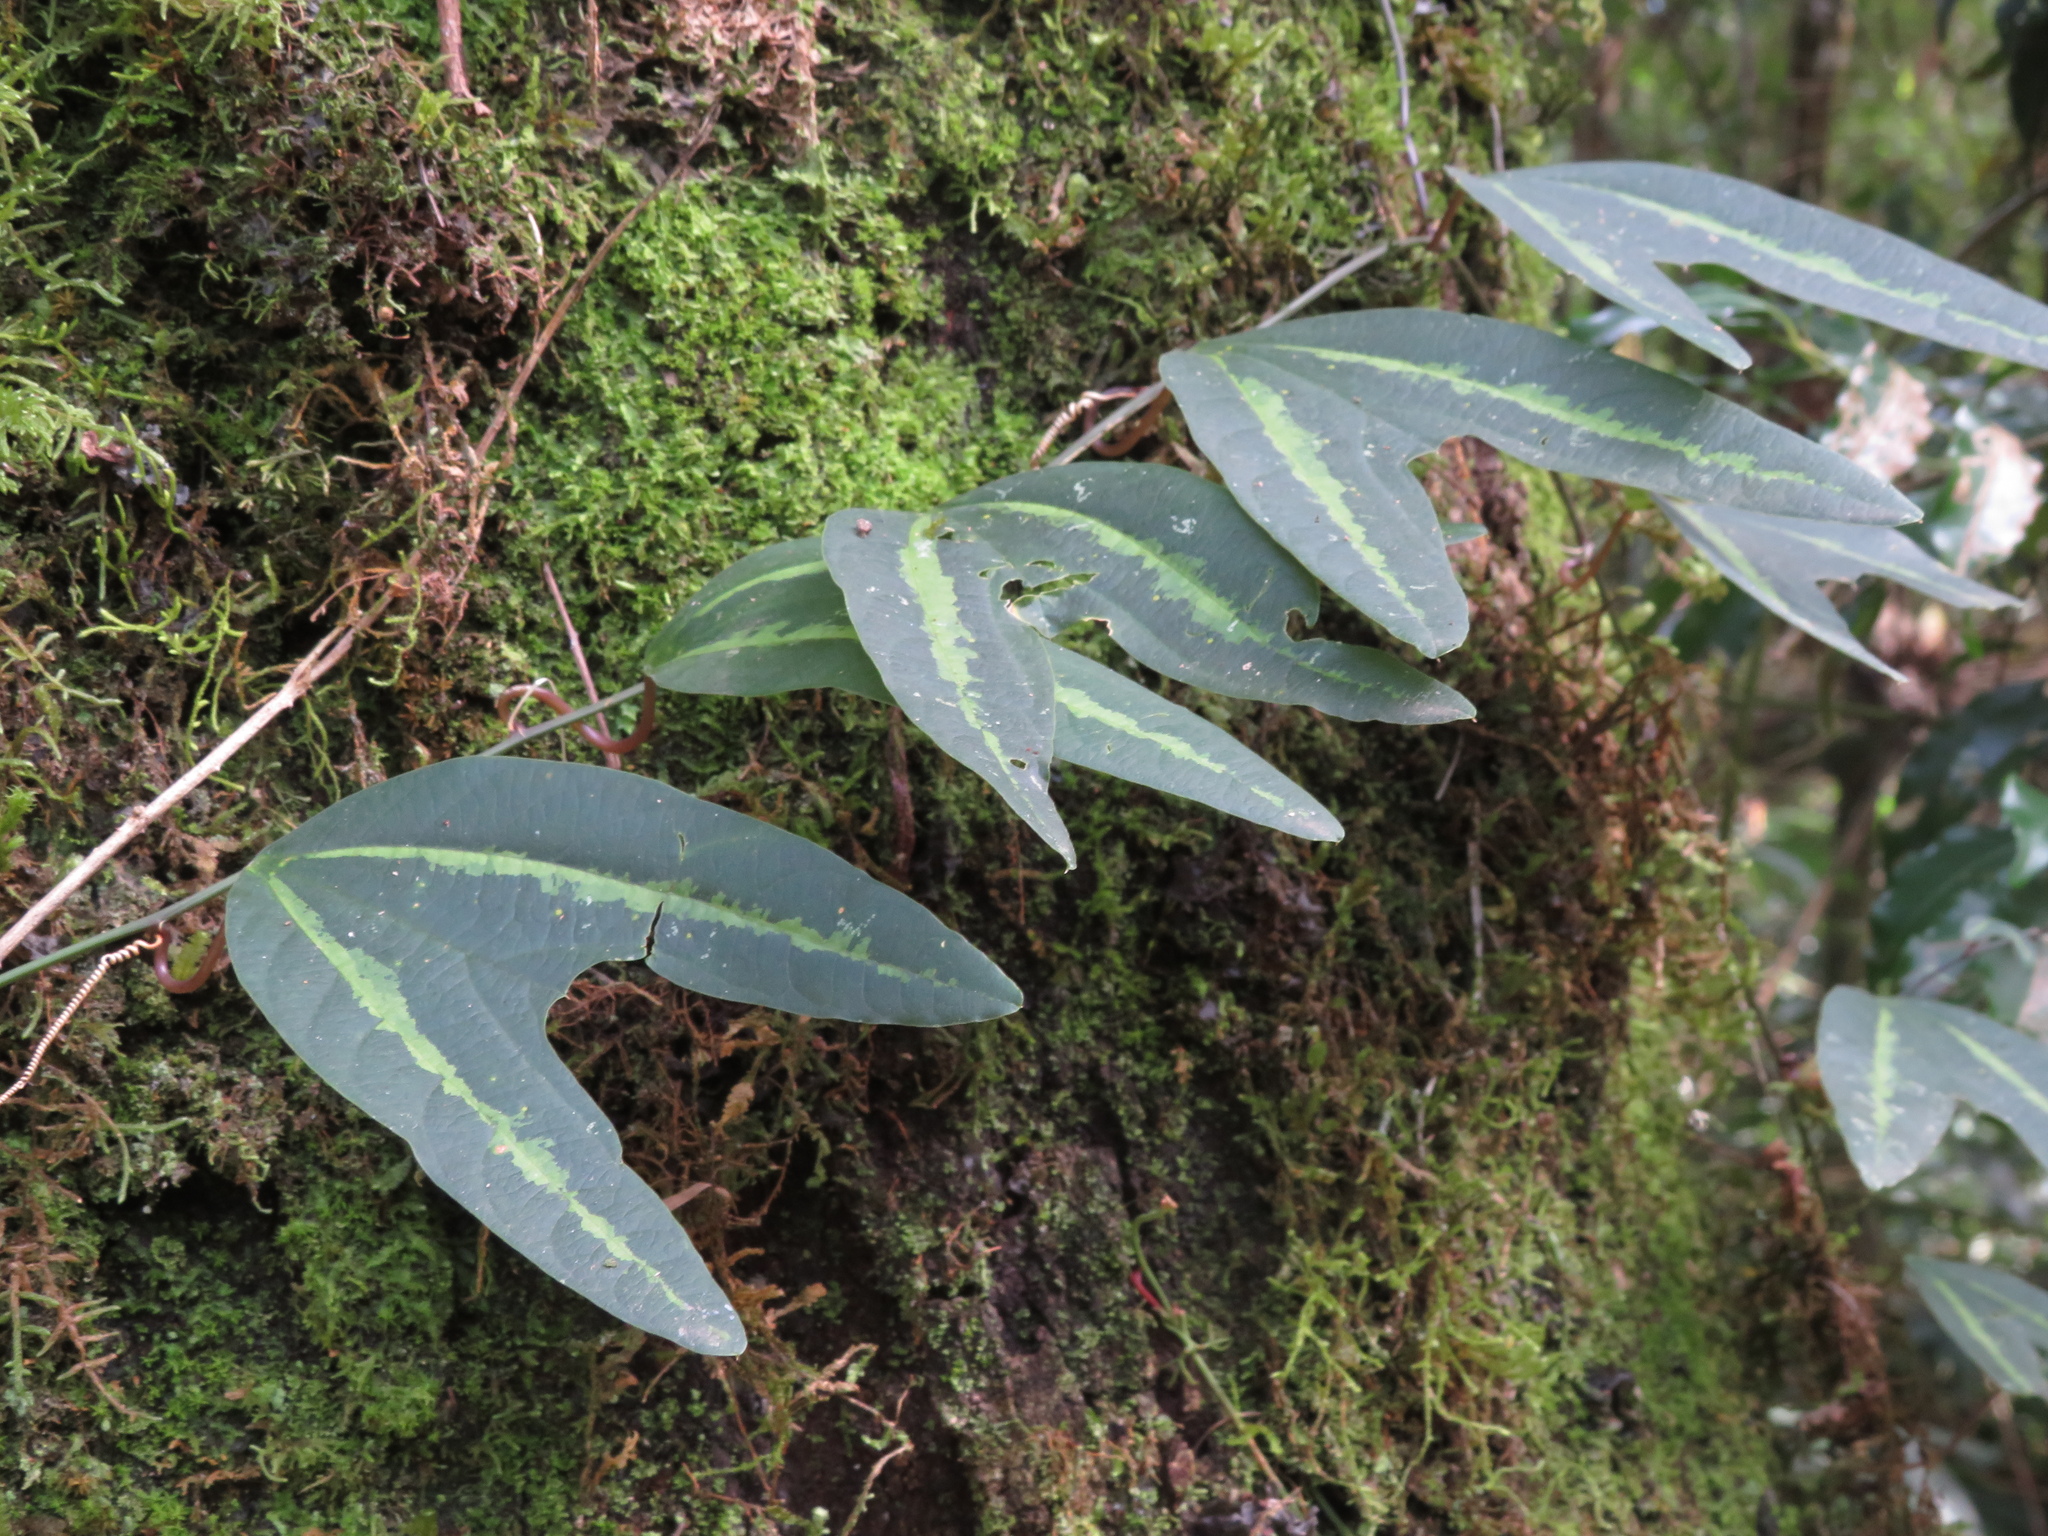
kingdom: Plantae
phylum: Tracheophyta
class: Magnoliopsida
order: Malpighiales
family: Passifloraceae
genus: Passiflora
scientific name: Passiflora urnifolia
